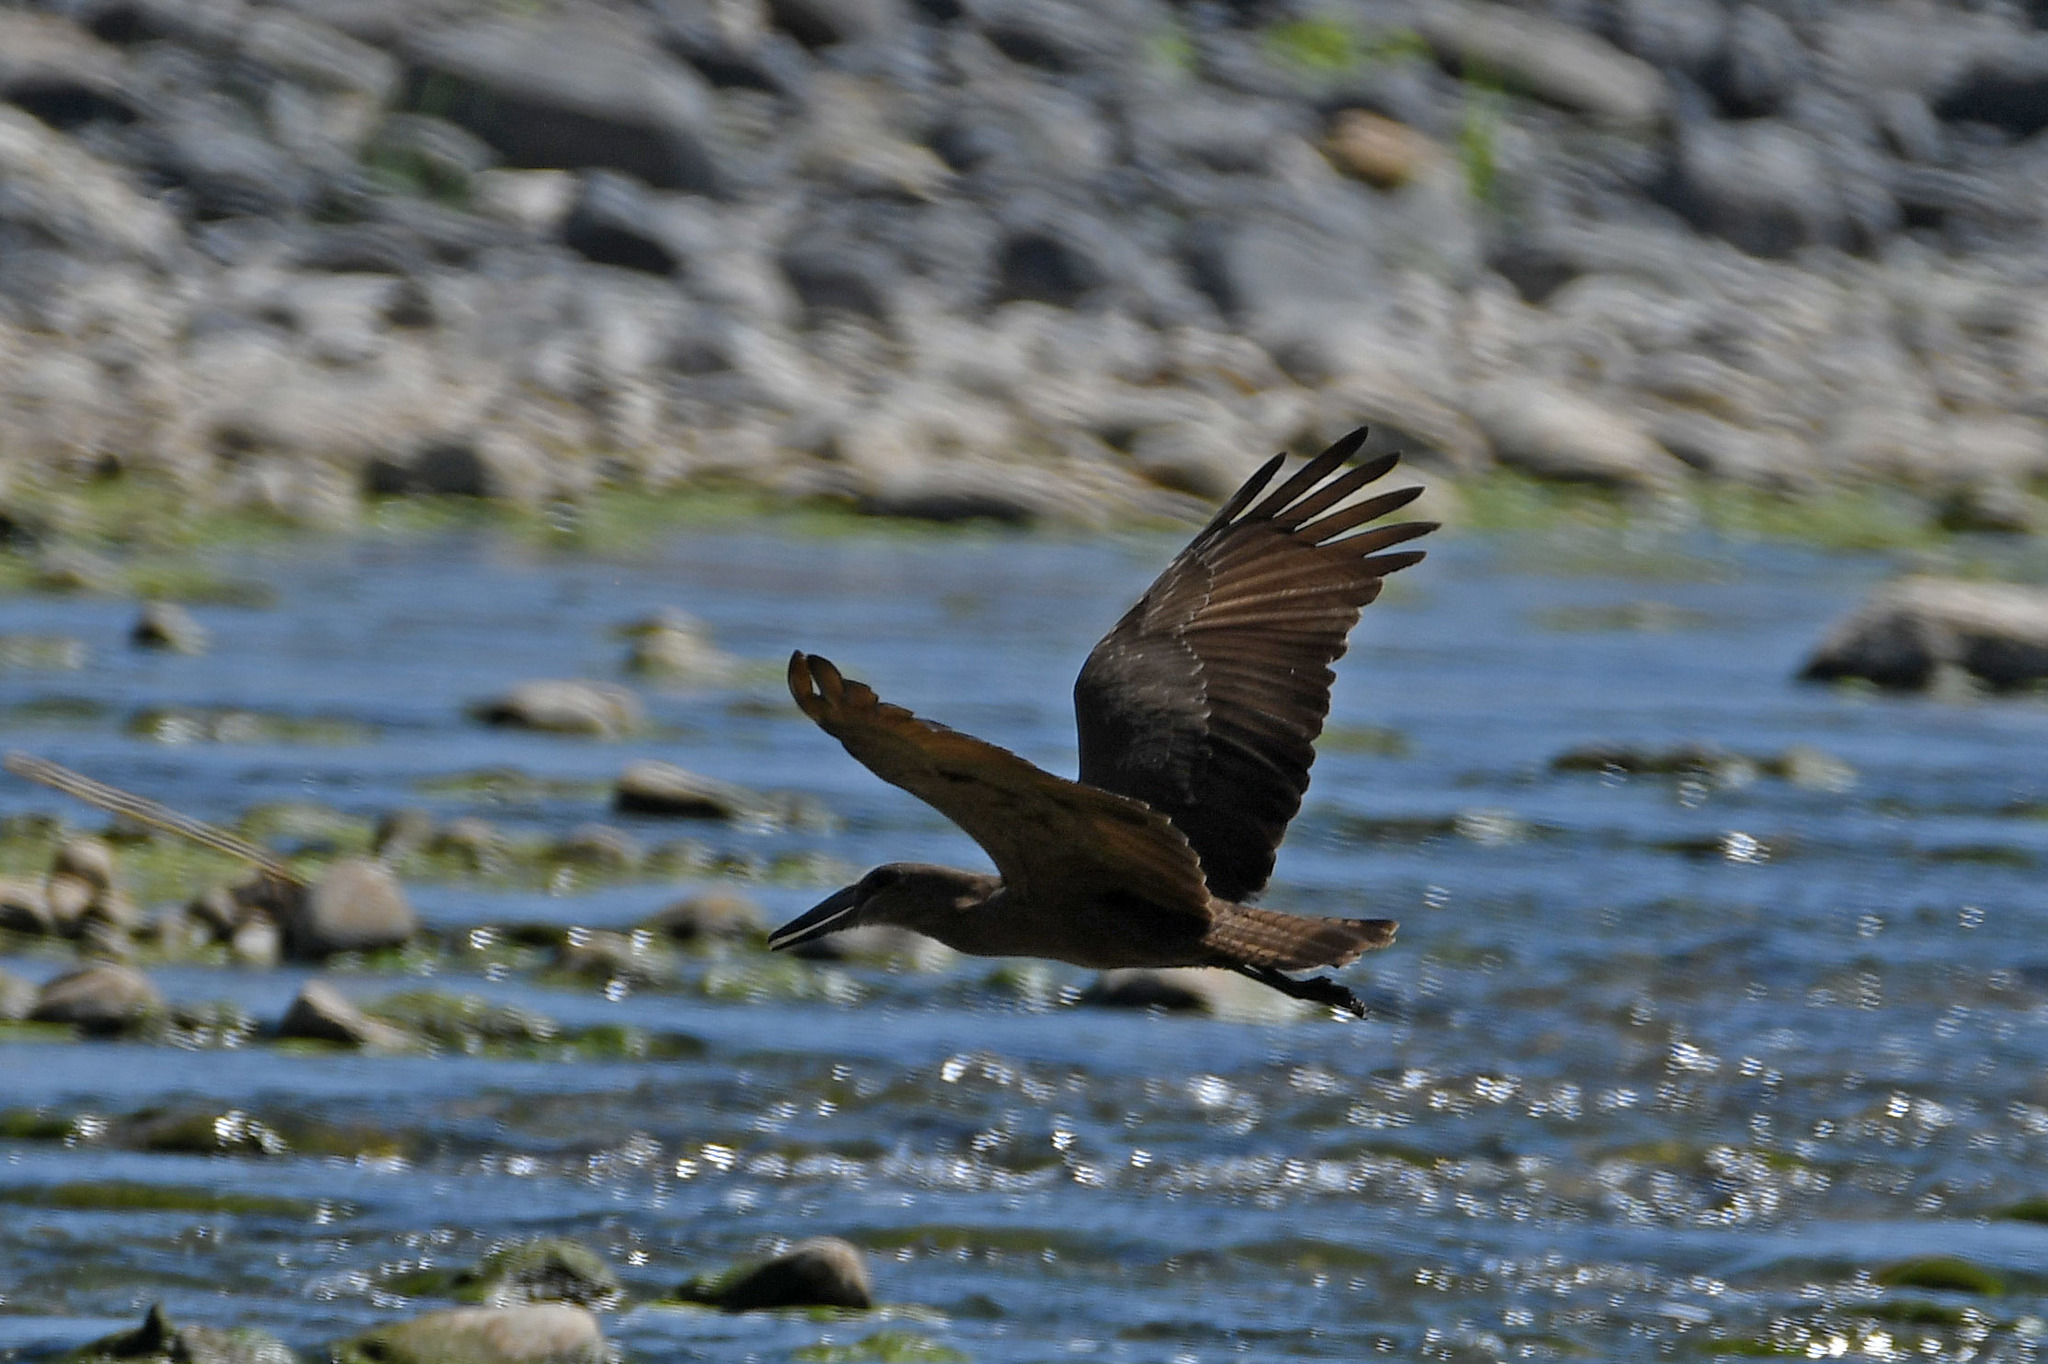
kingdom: Animalia
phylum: Chordata
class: Aves
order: Pelecaniformes
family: Scopidae
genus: Scopus
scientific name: Scopus umbretta
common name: Hamerkop
